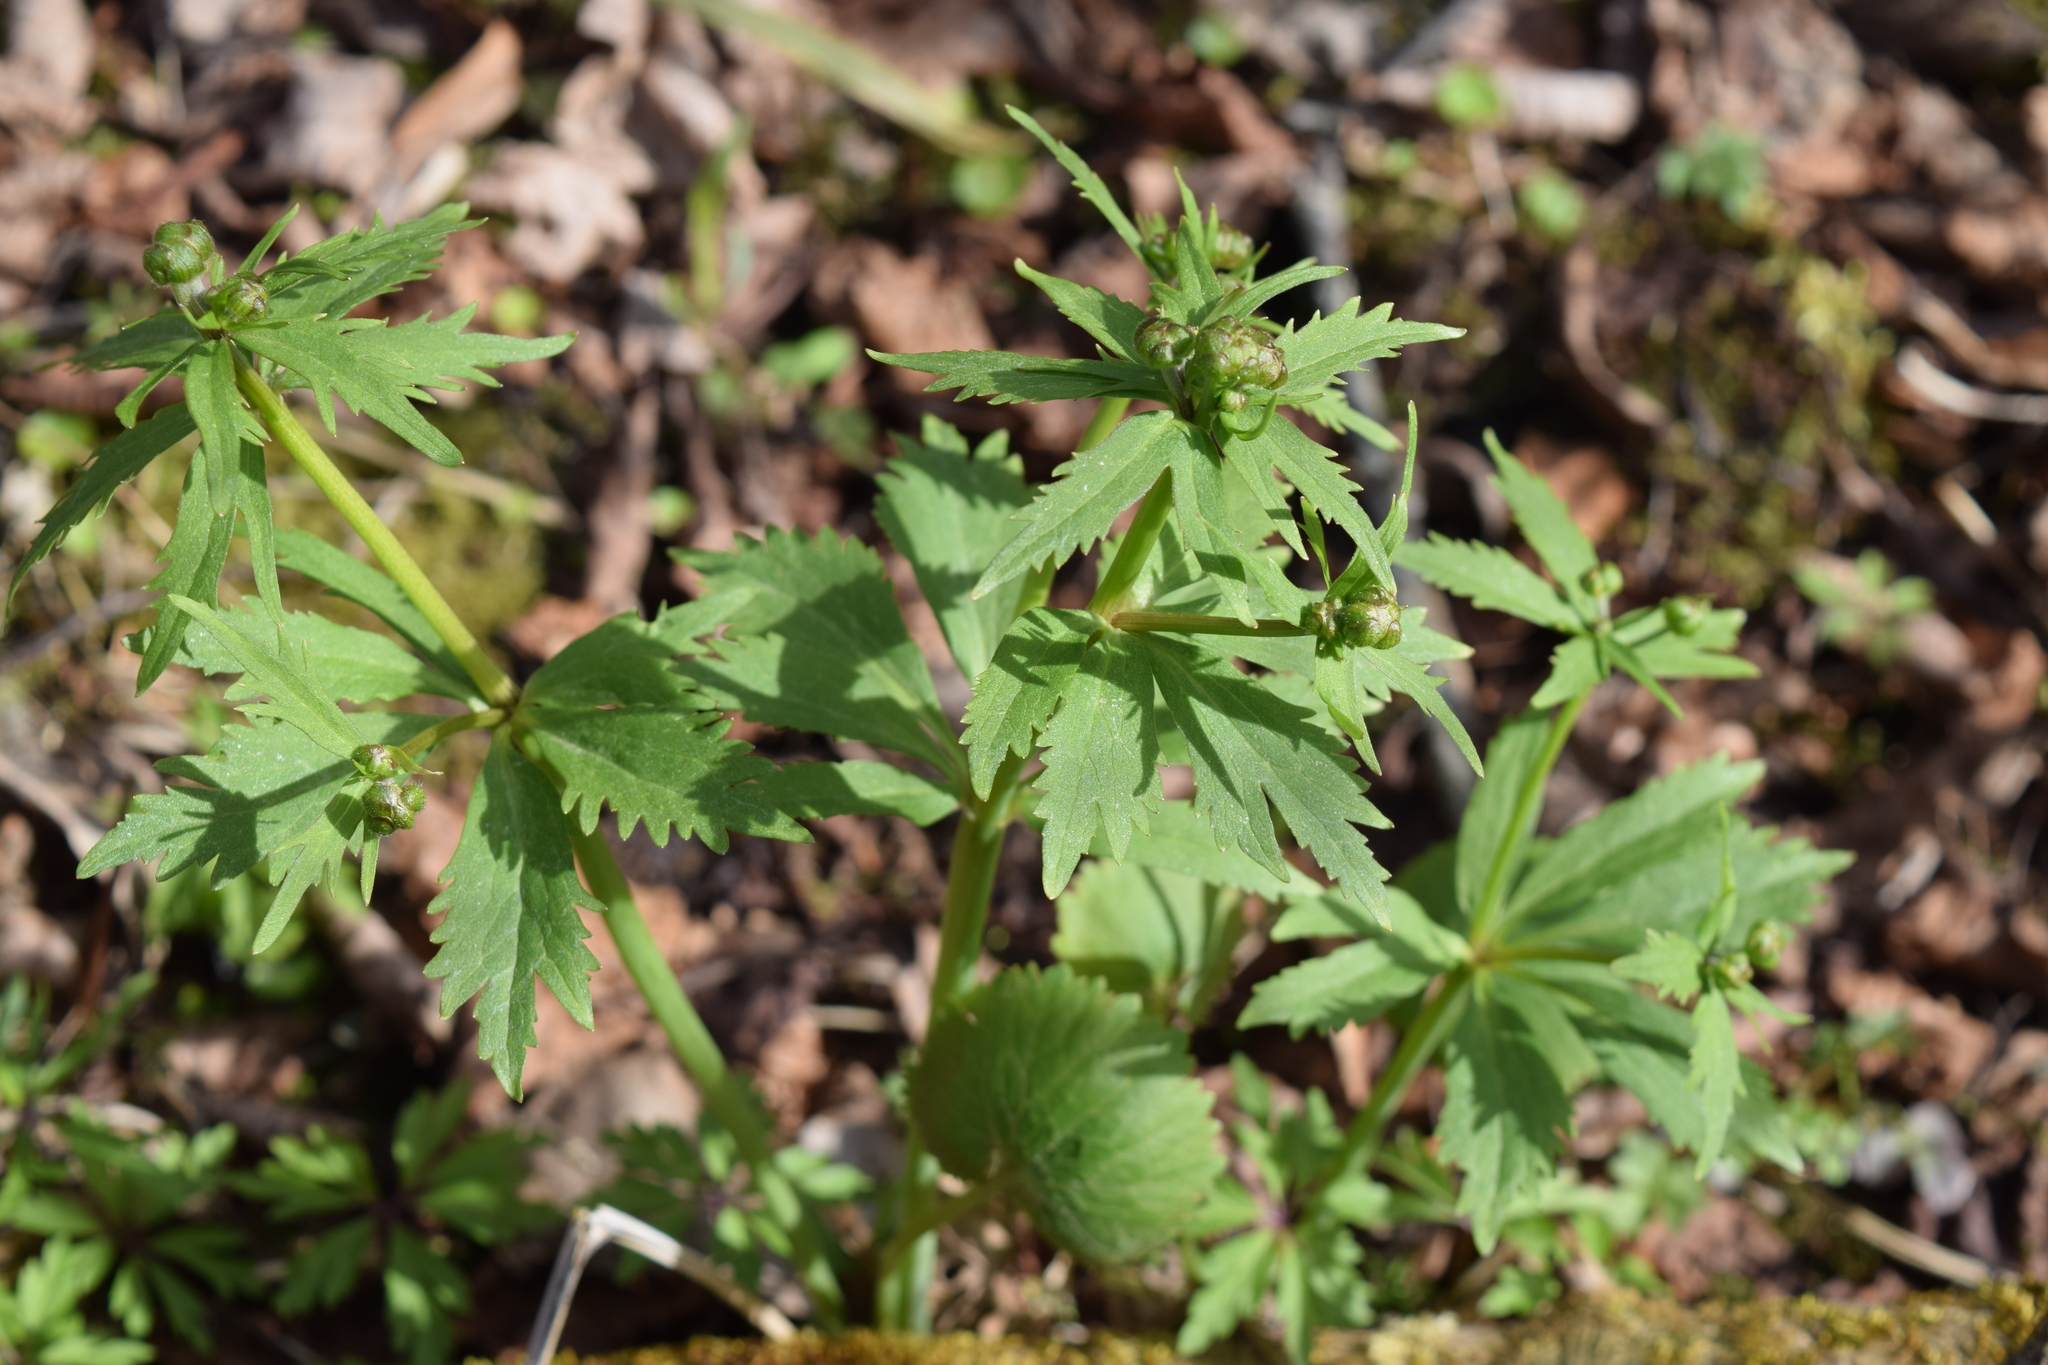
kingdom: Plantae
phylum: Tracheophyta
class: Magnoliopsida
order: Ranunculales
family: Ranunculaceae
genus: Ranunculus
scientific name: Ranunculus cassubicus
